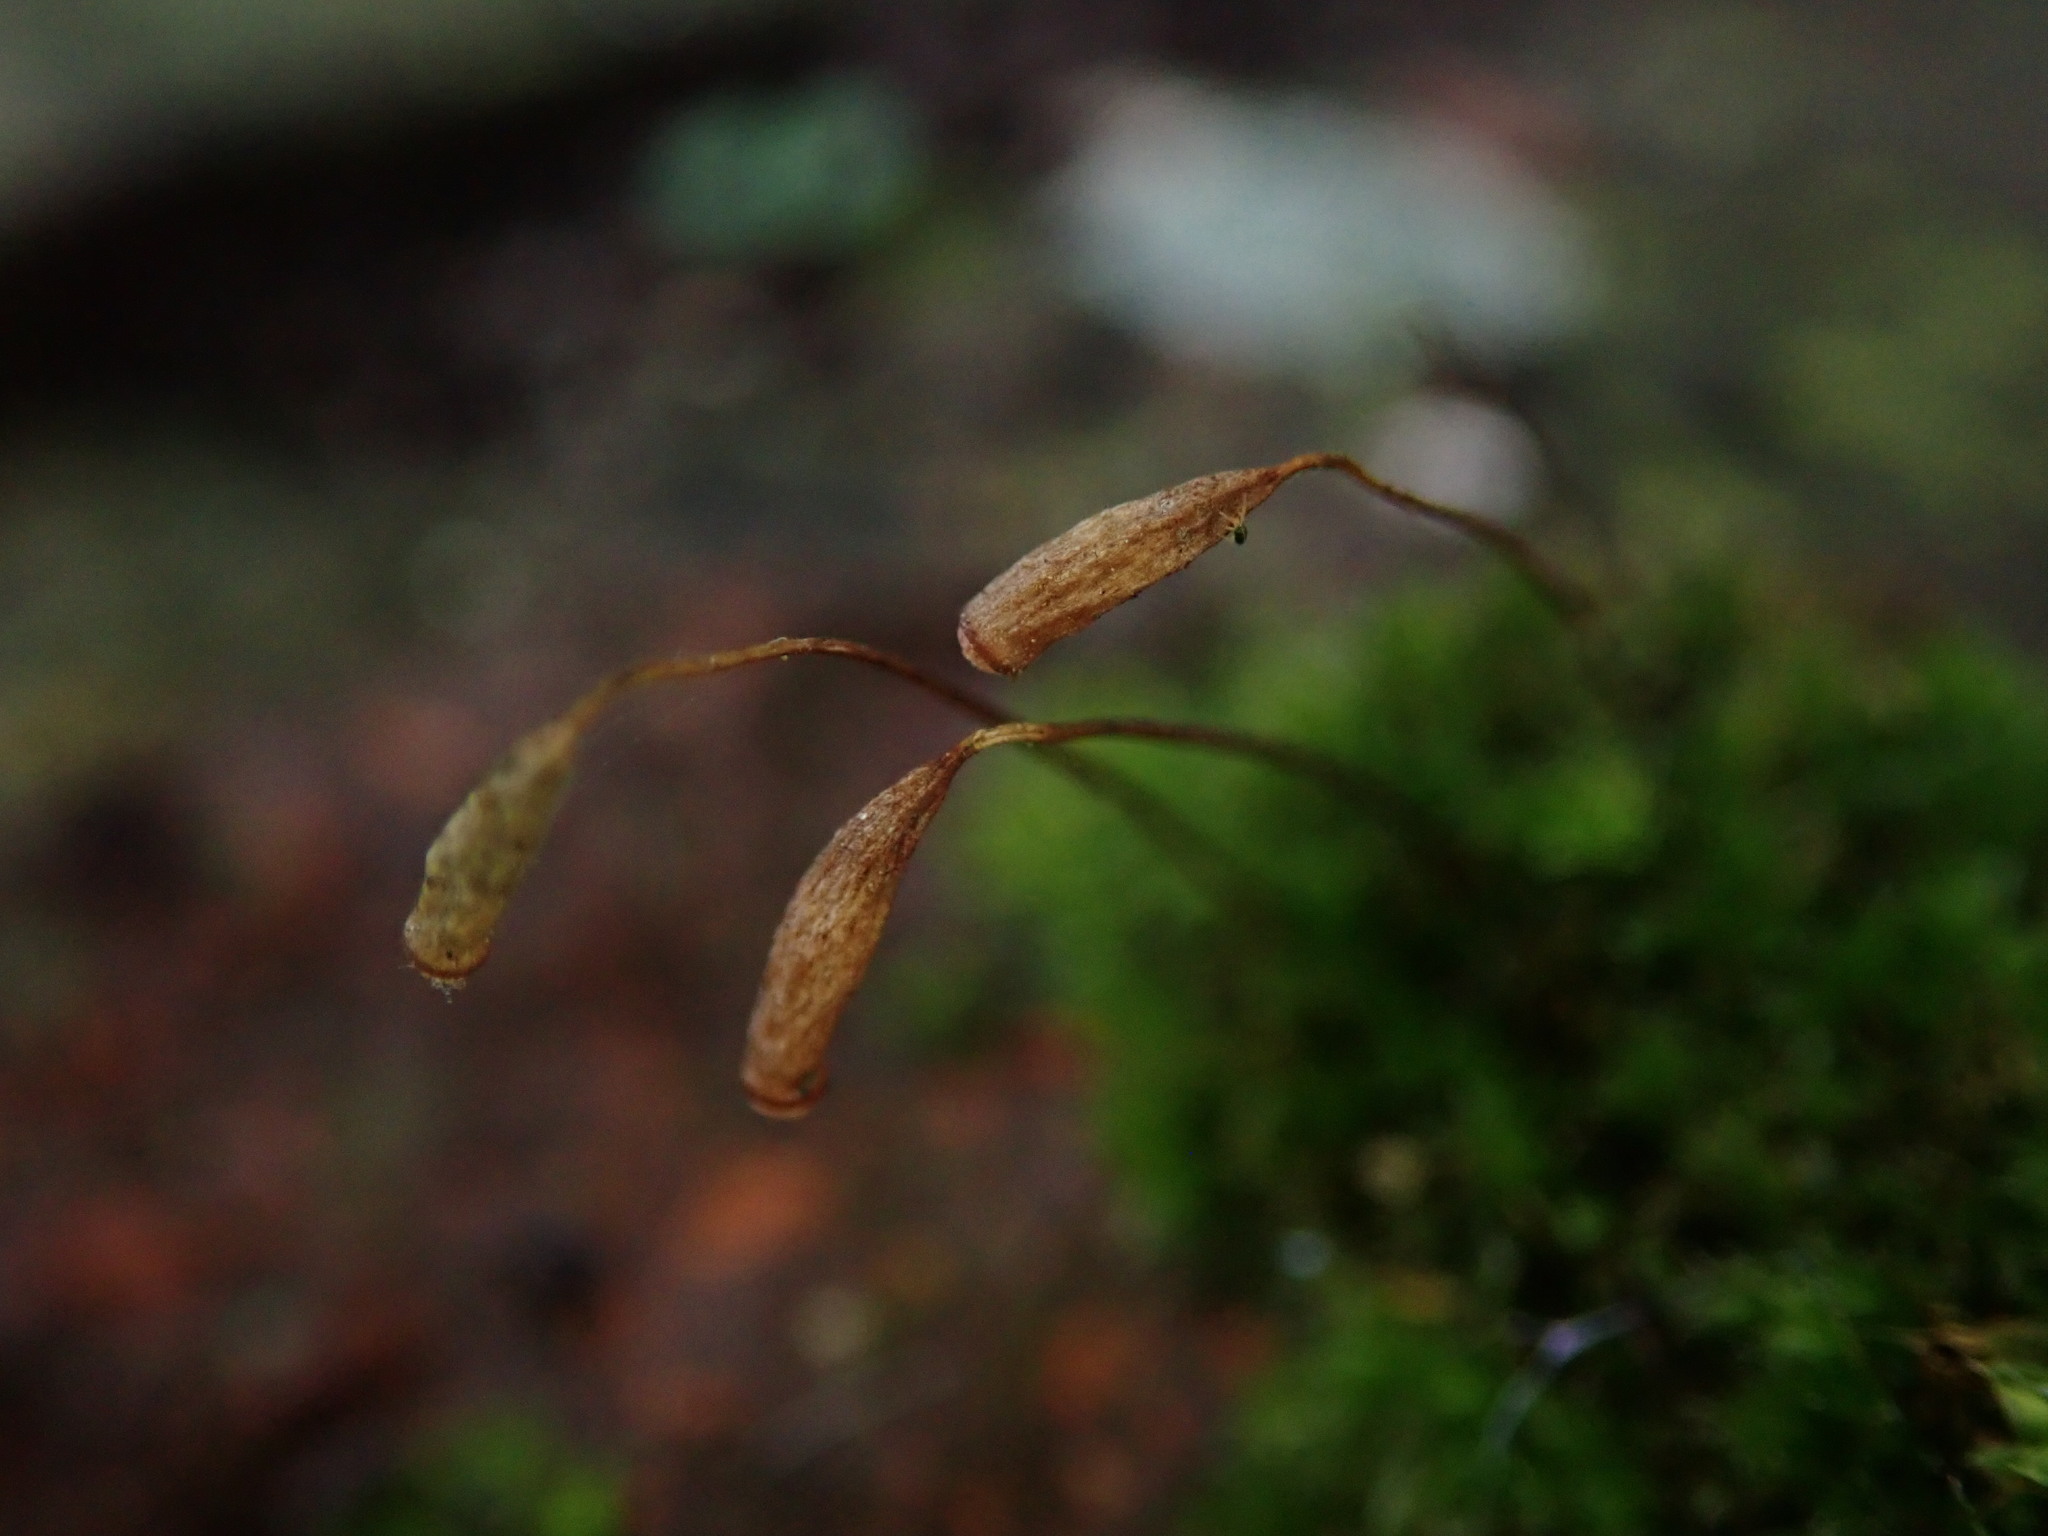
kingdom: Plantae
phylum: Bryophyta
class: Bryopsida
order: Bryales
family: Bryaceae
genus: Rosulabryum
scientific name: Rosulabryum capillare
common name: Capillary thread-moss
